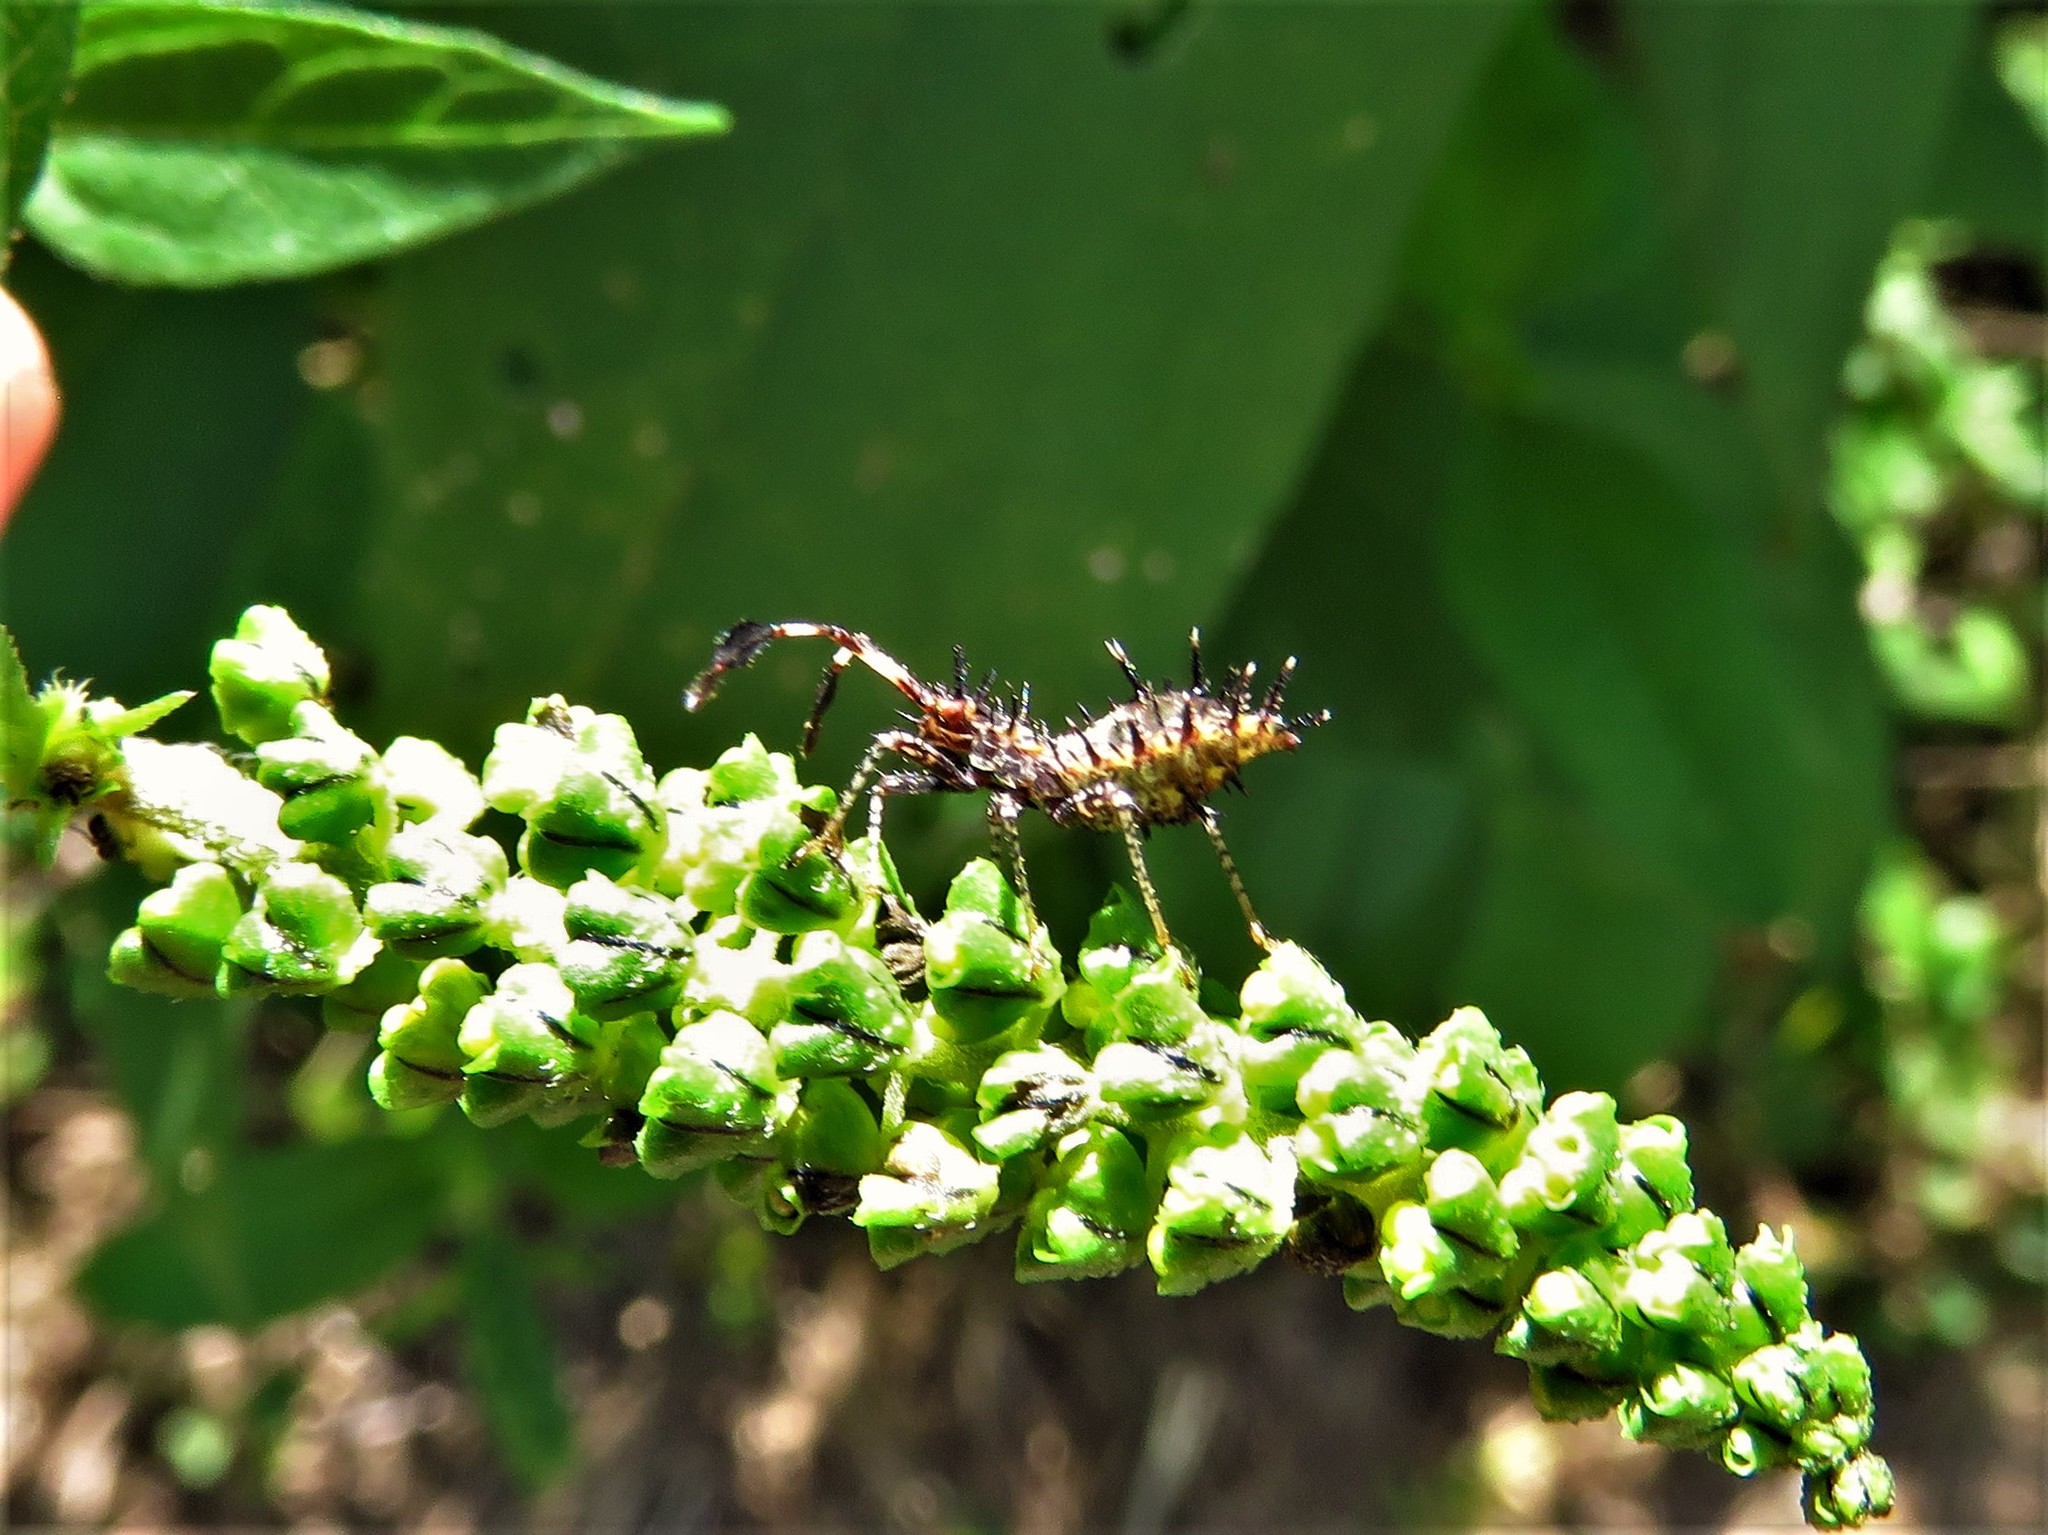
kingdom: Animalia
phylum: Arthropoda
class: Insecta
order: Hemiptera
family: Coreidae
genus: Euthochtha
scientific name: Euthochtha galeator
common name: Helmeted squash bug
